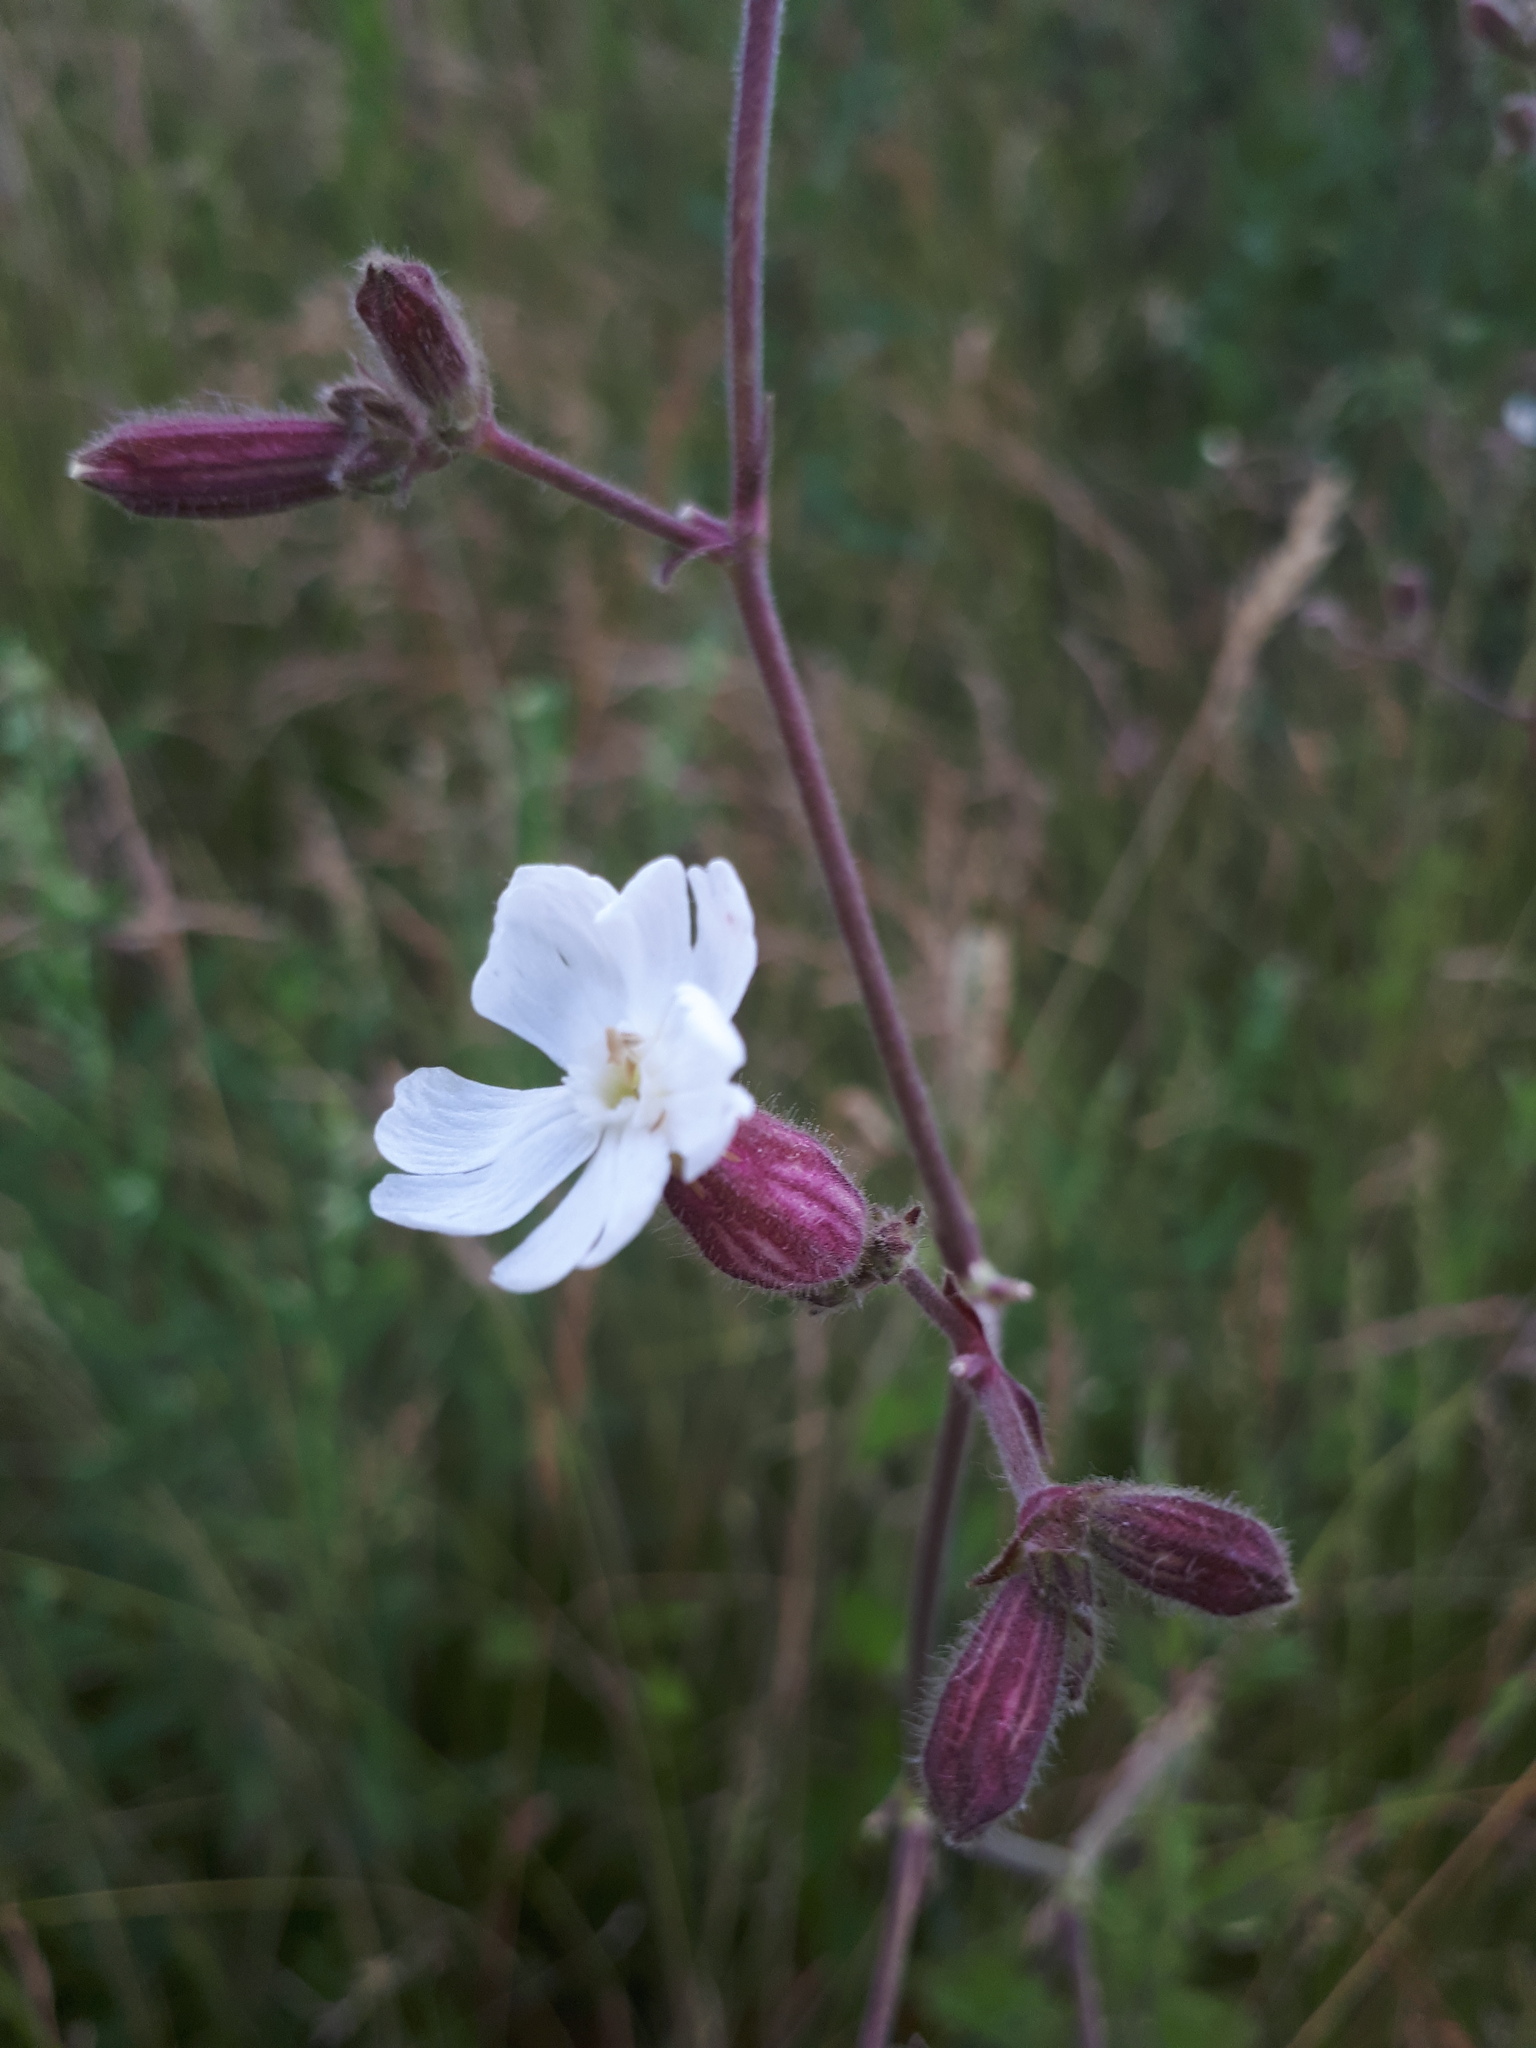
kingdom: Plantae
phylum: Tracheophyta
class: Magnoliopsida
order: Caryophyllales
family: Caryophyllaceae
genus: Silene
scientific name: Silene latifolia
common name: White campion
